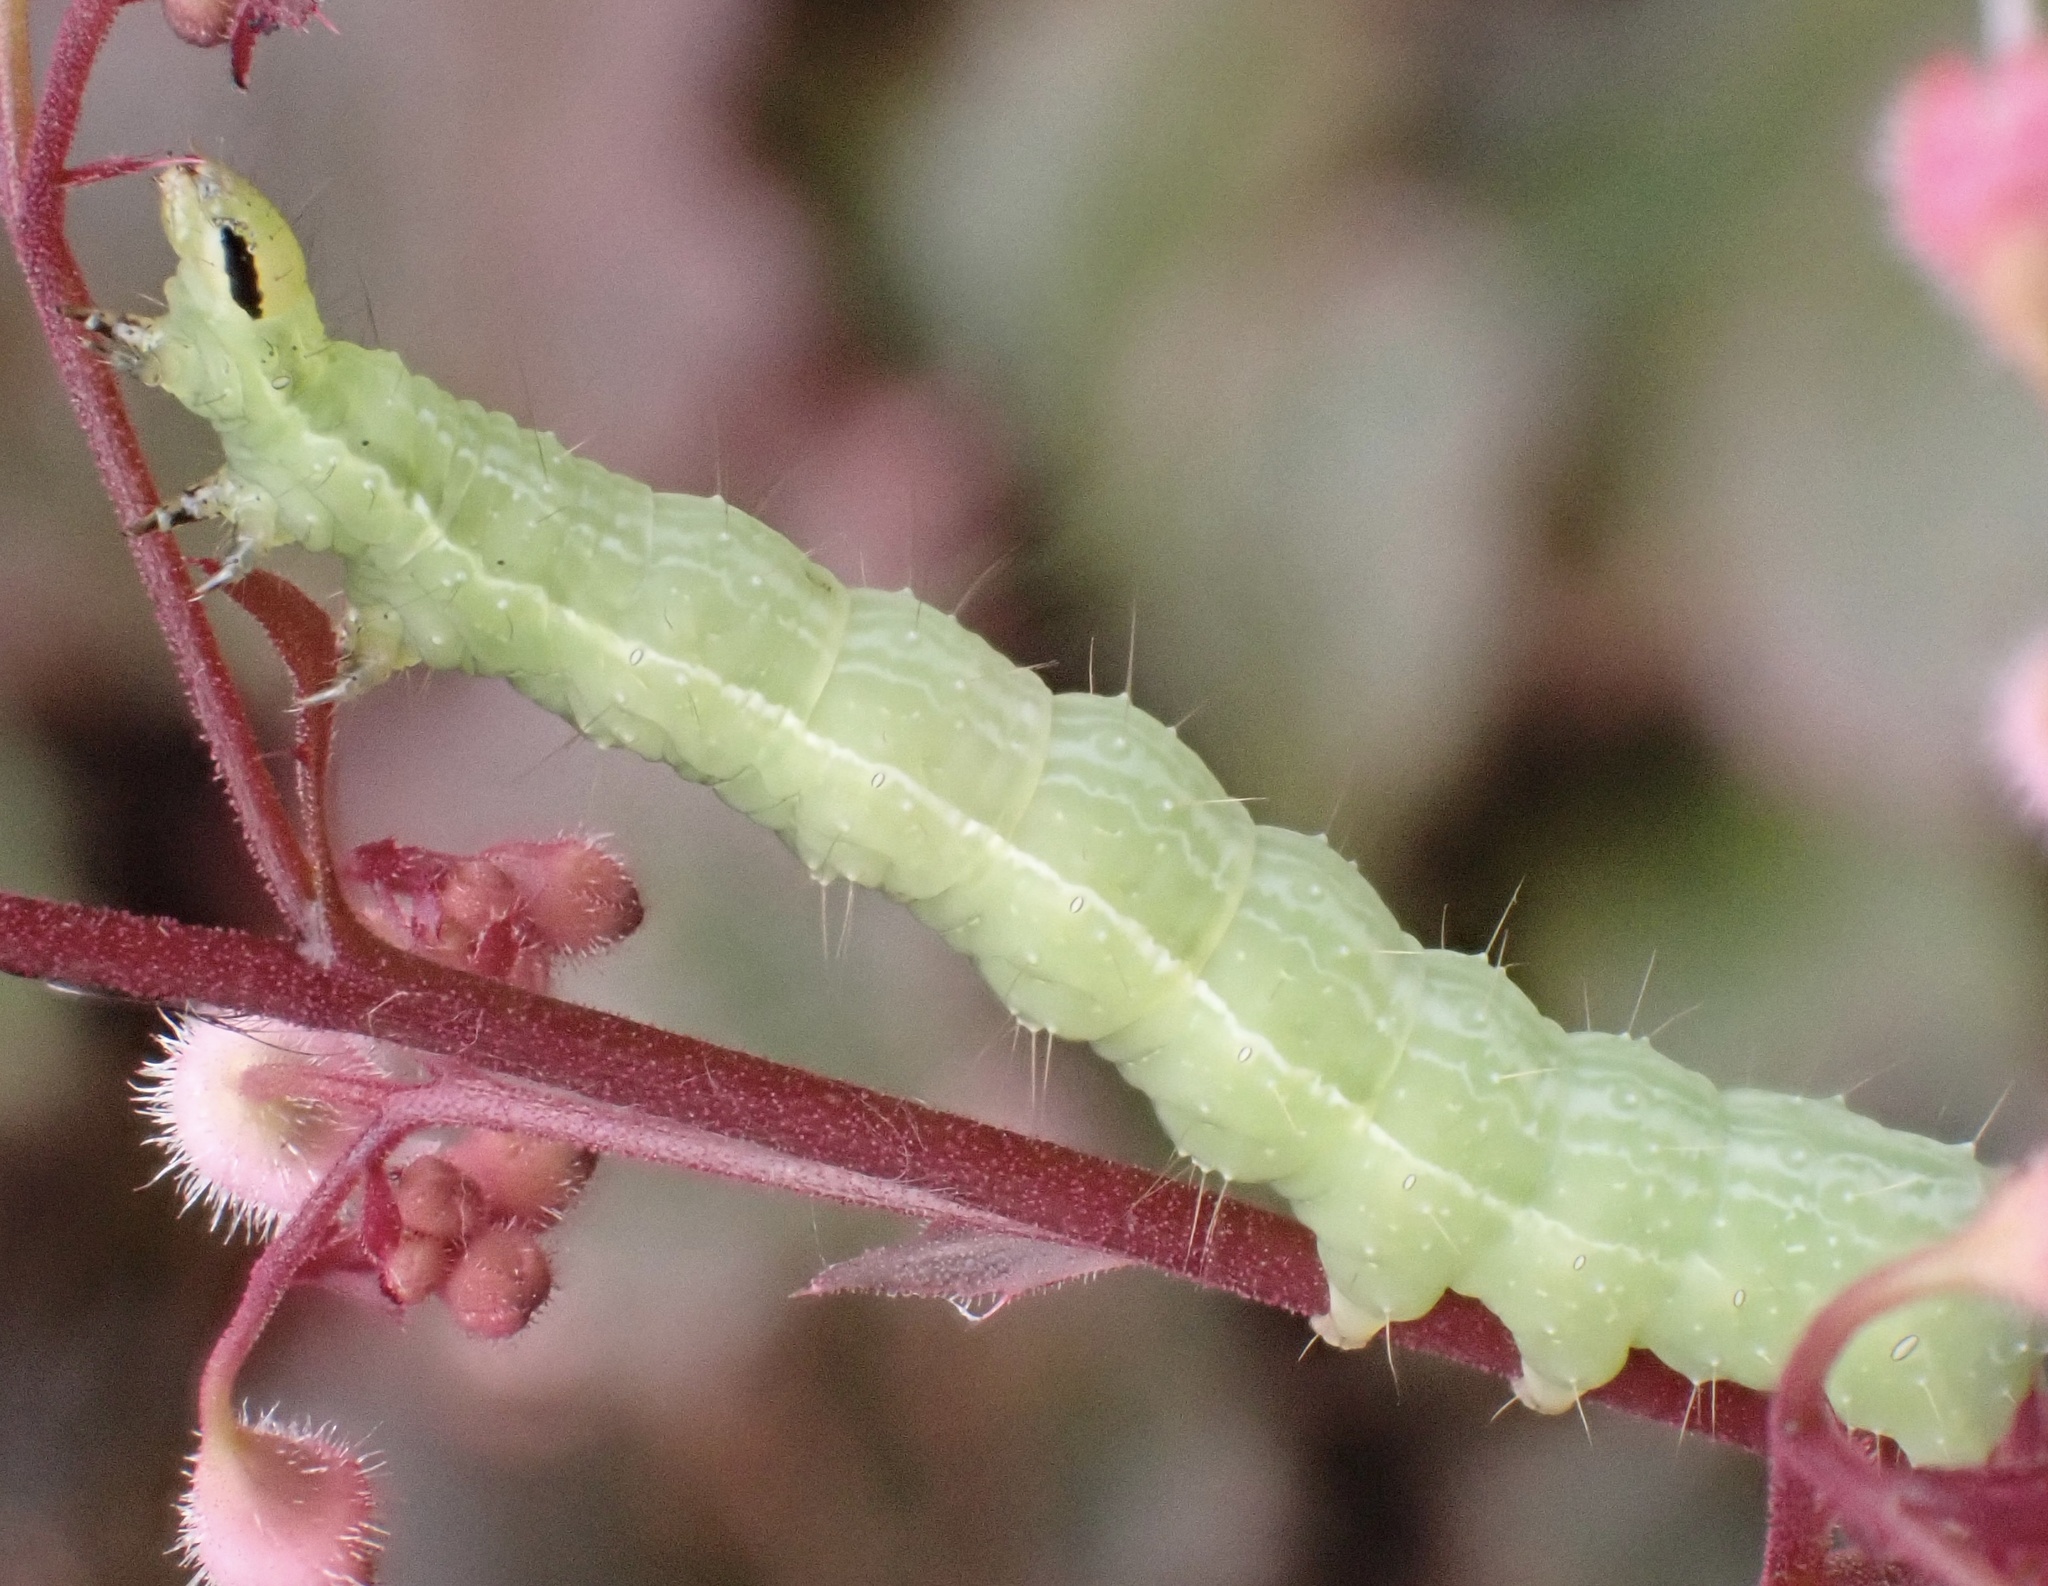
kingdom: Animalia
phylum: Arthropoda
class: Insecta
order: Lepidoptera
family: Noctuidae
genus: Autographa
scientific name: Autographa gamma
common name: Silver y
